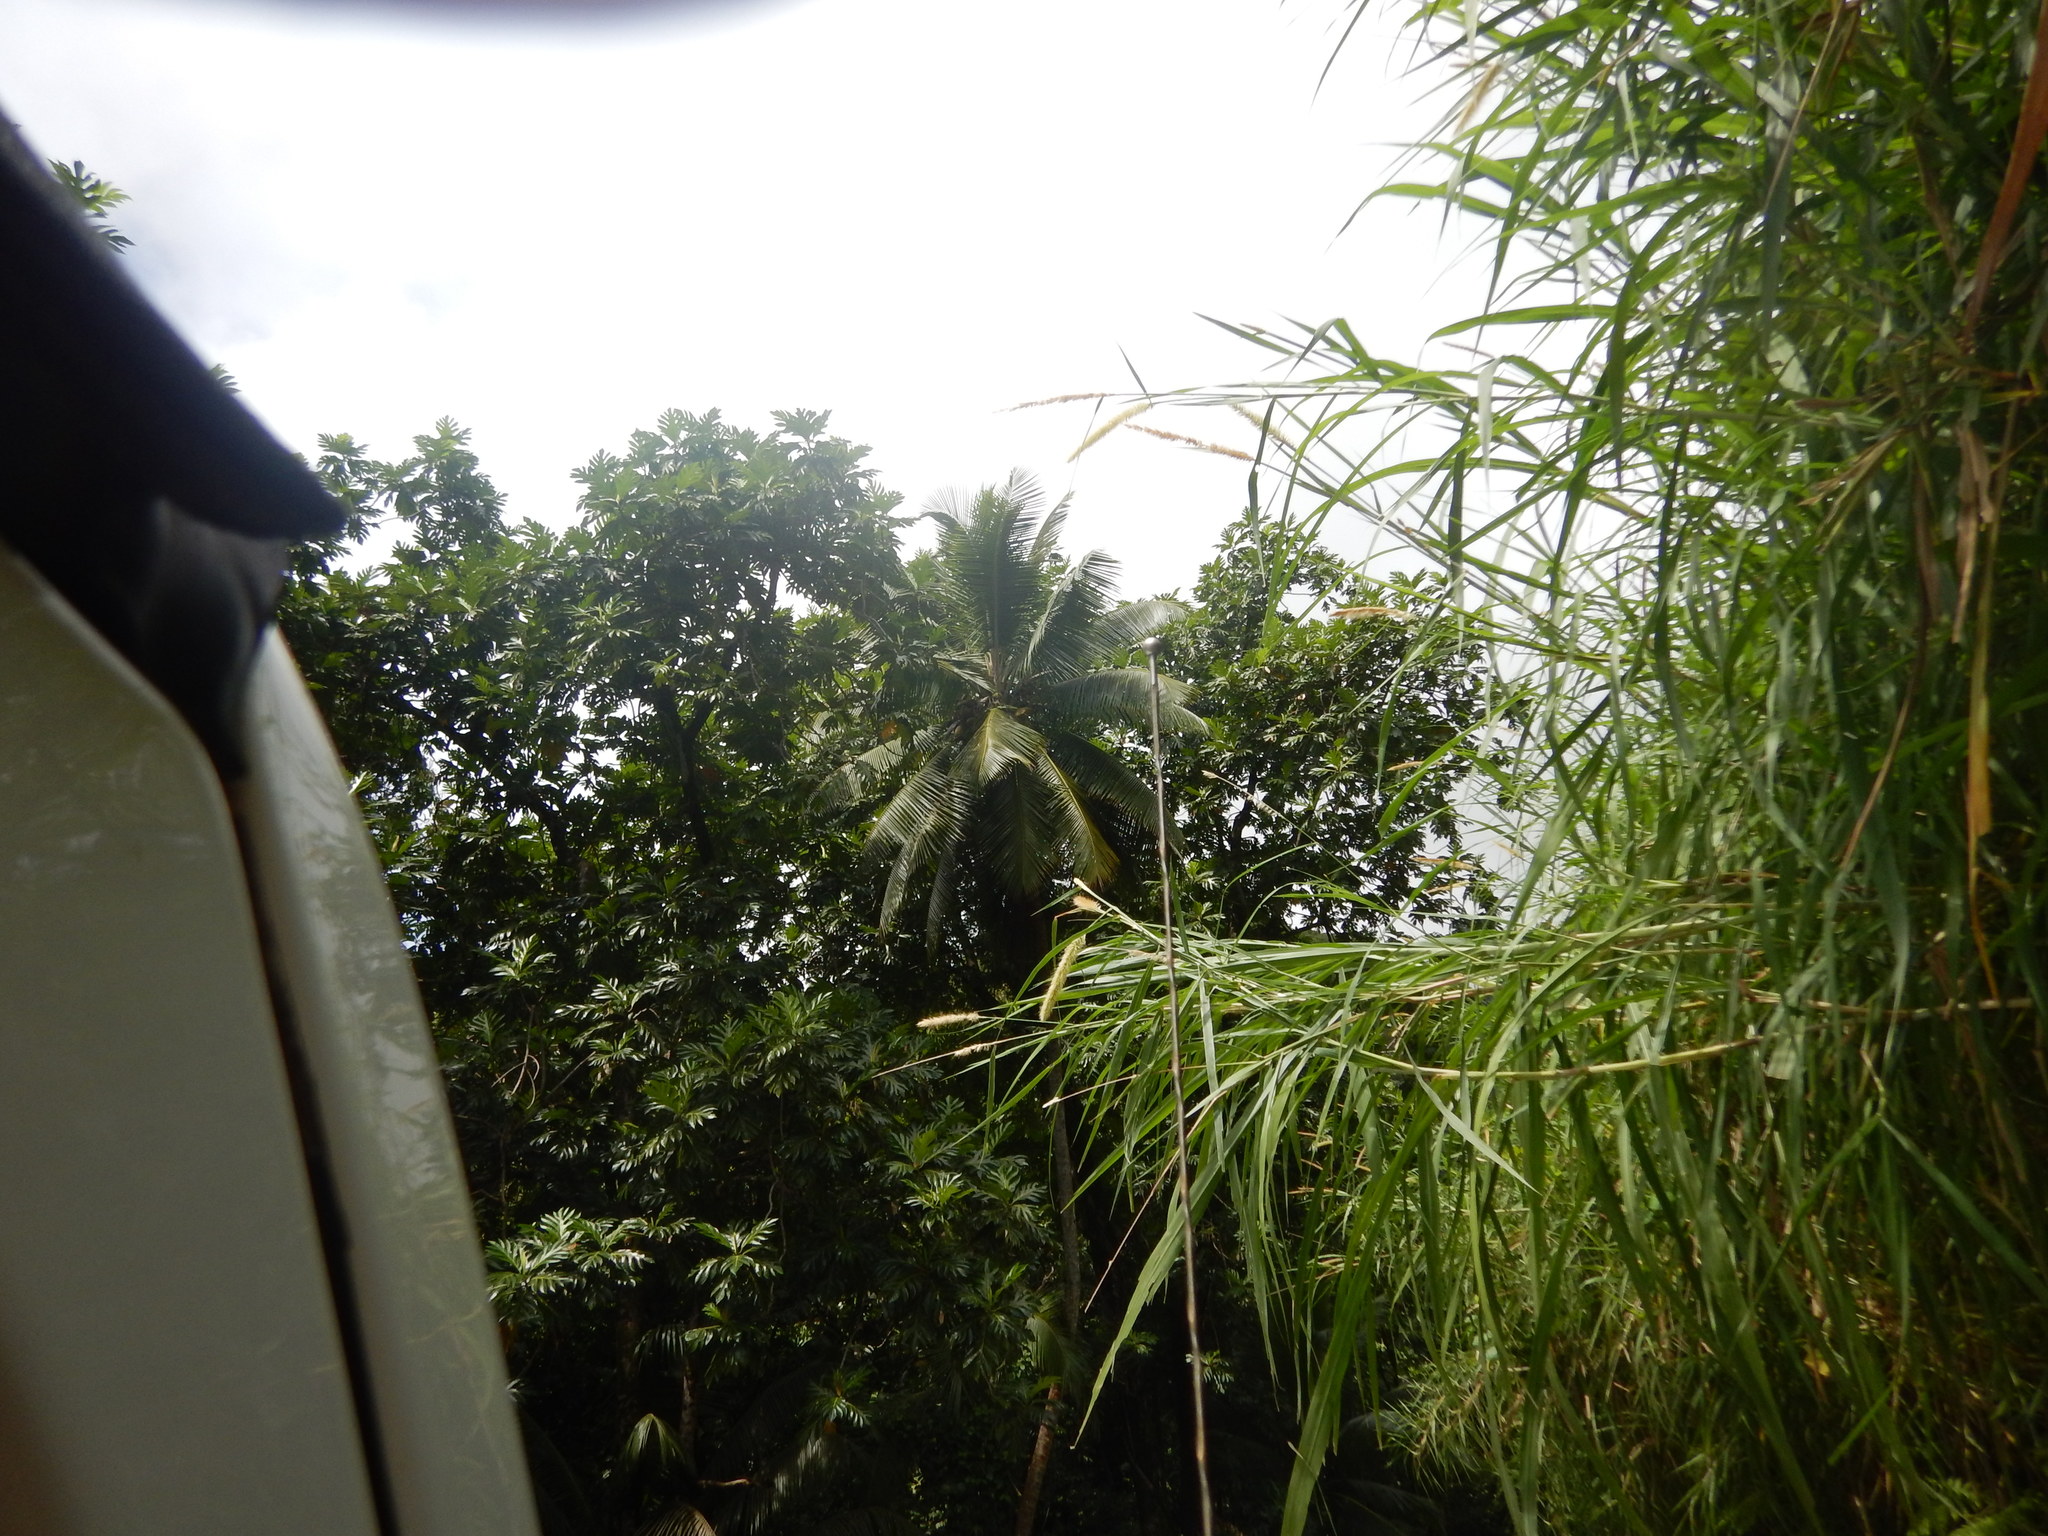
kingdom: Plantae
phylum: Tracheophyta
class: Liliopsida
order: Poales
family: Poaceae
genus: Cenchrus
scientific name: Cenchrus purpureus
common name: Elephant grass
